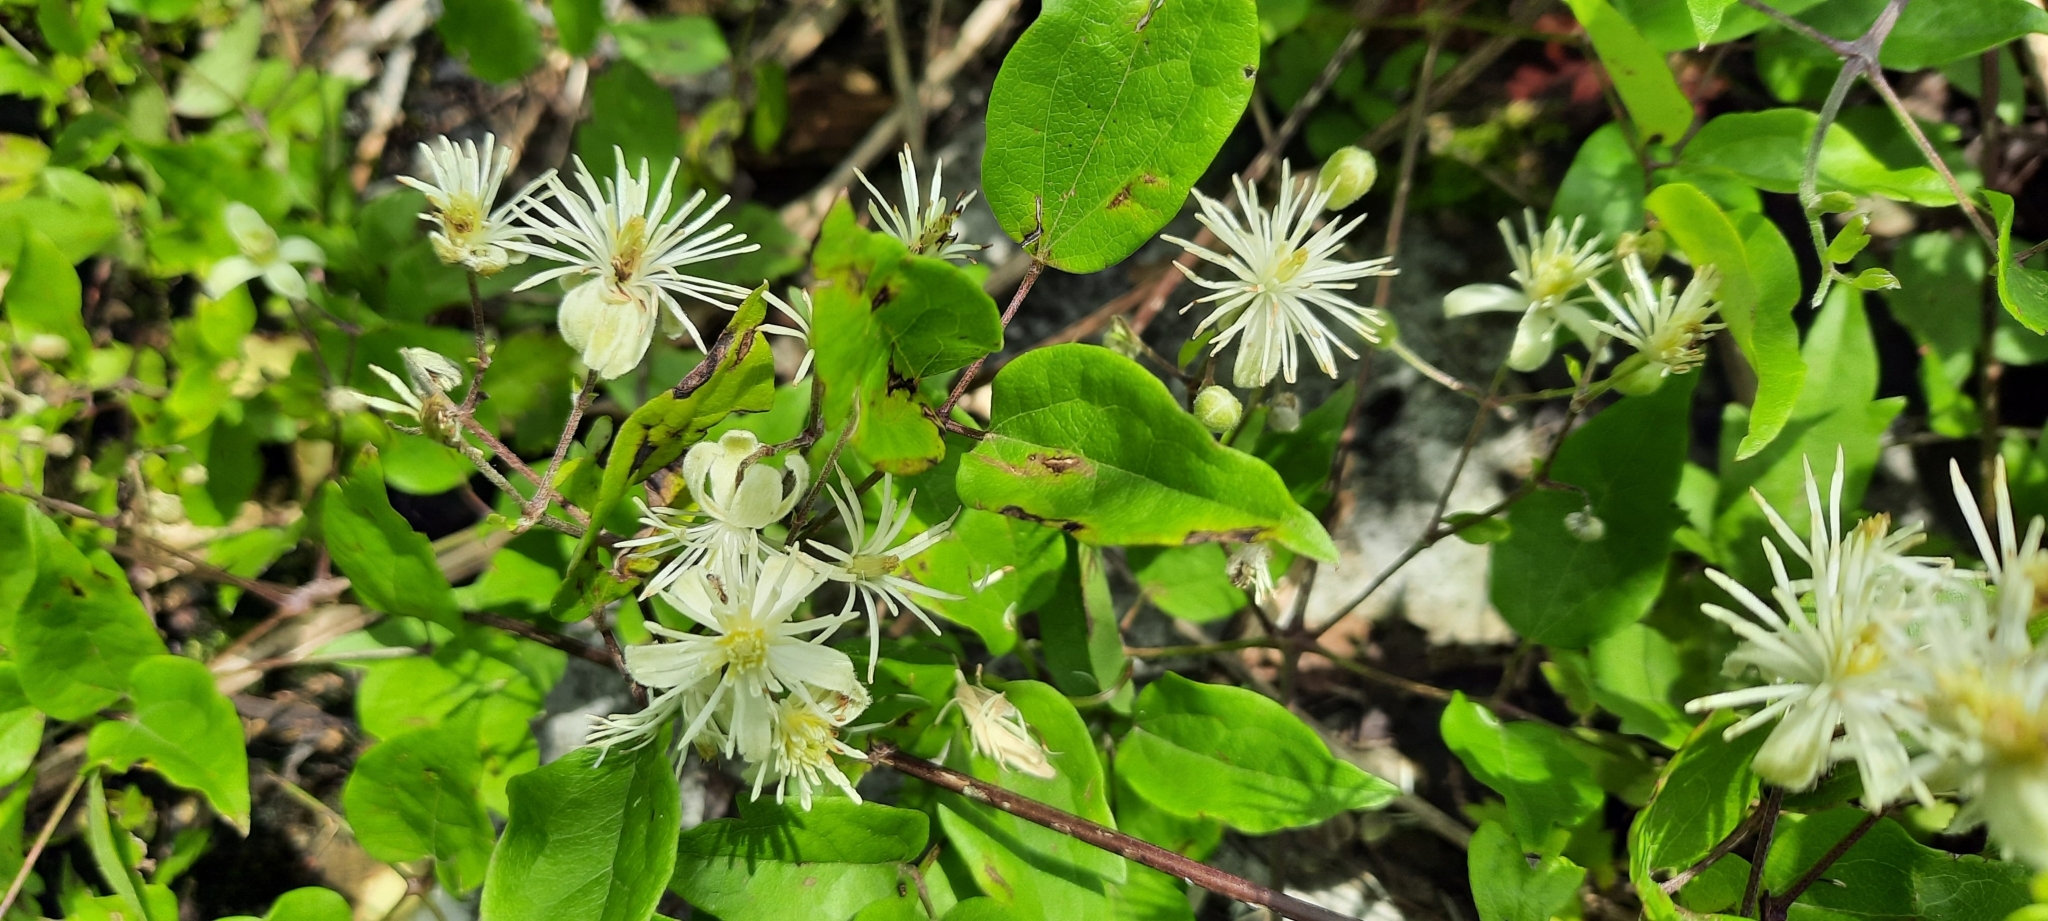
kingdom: Plantae
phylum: Tracheophyta
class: Magnoliopsida
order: Ranunculales
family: Ranunculaceae
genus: Clematis
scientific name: Clematis vitalba
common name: Evergreen clematis
